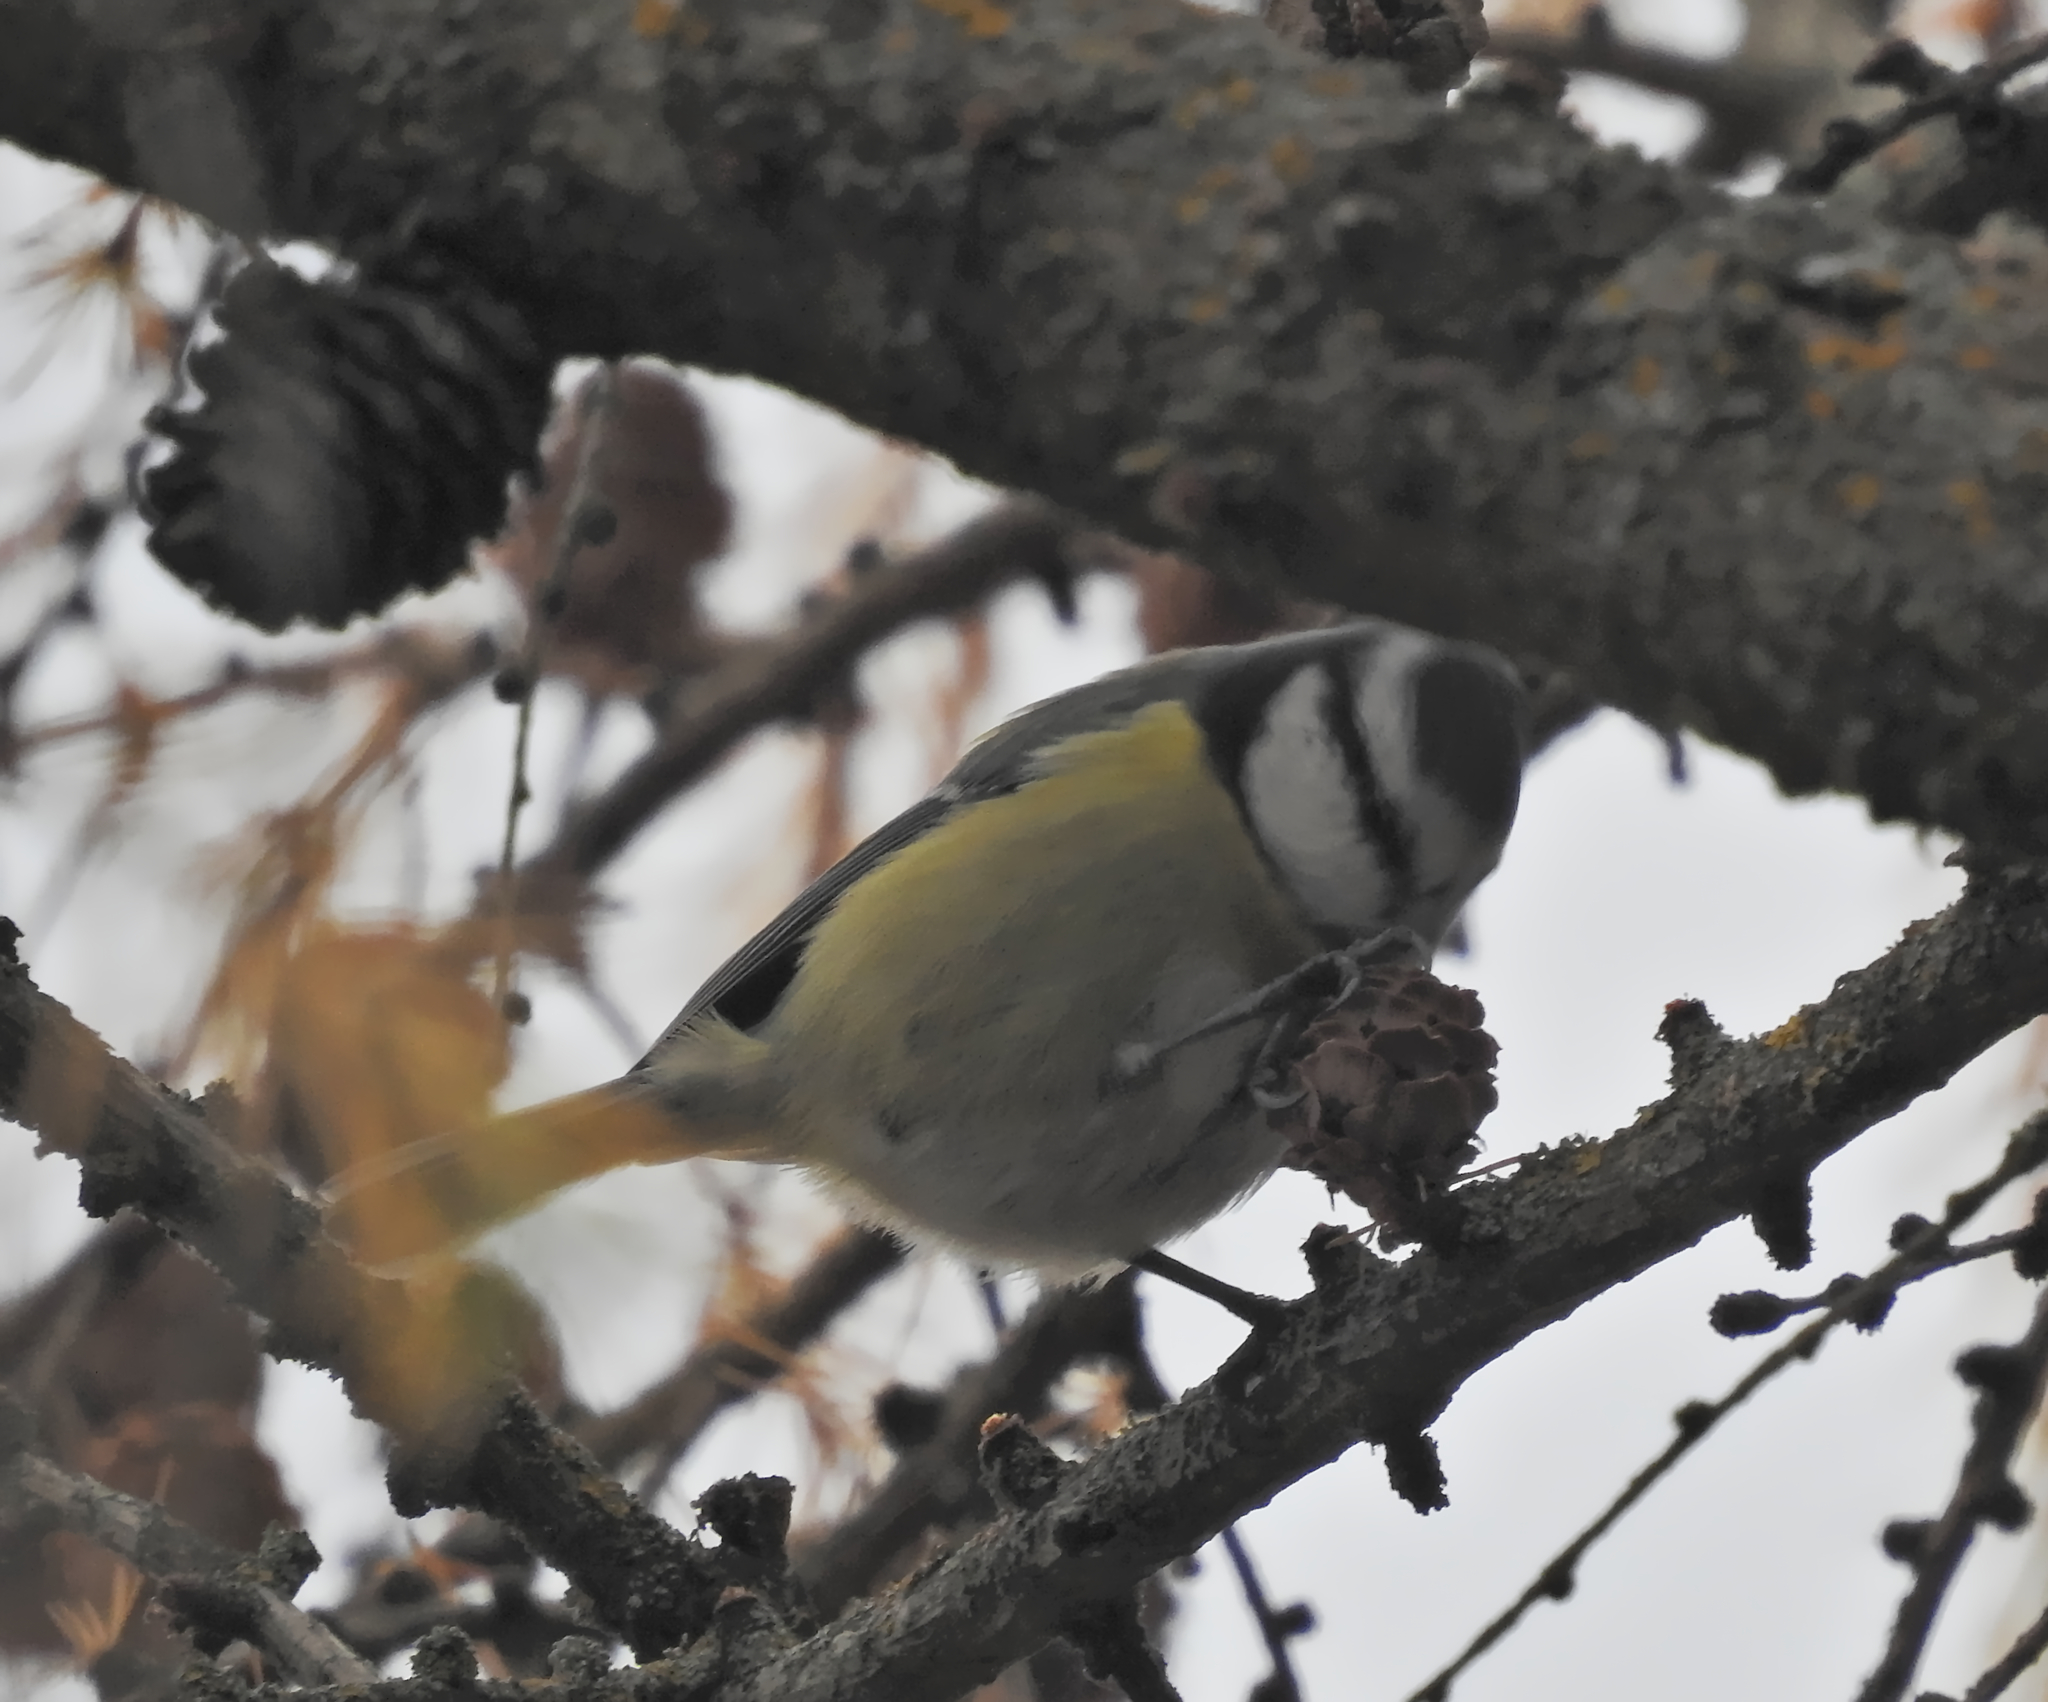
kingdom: Animalia
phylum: Chordata
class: Aves
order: Passeriformes
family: Paridae
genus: Cyanistes
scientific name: Cyanistes caeruleus
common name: Eurasian blue tit
